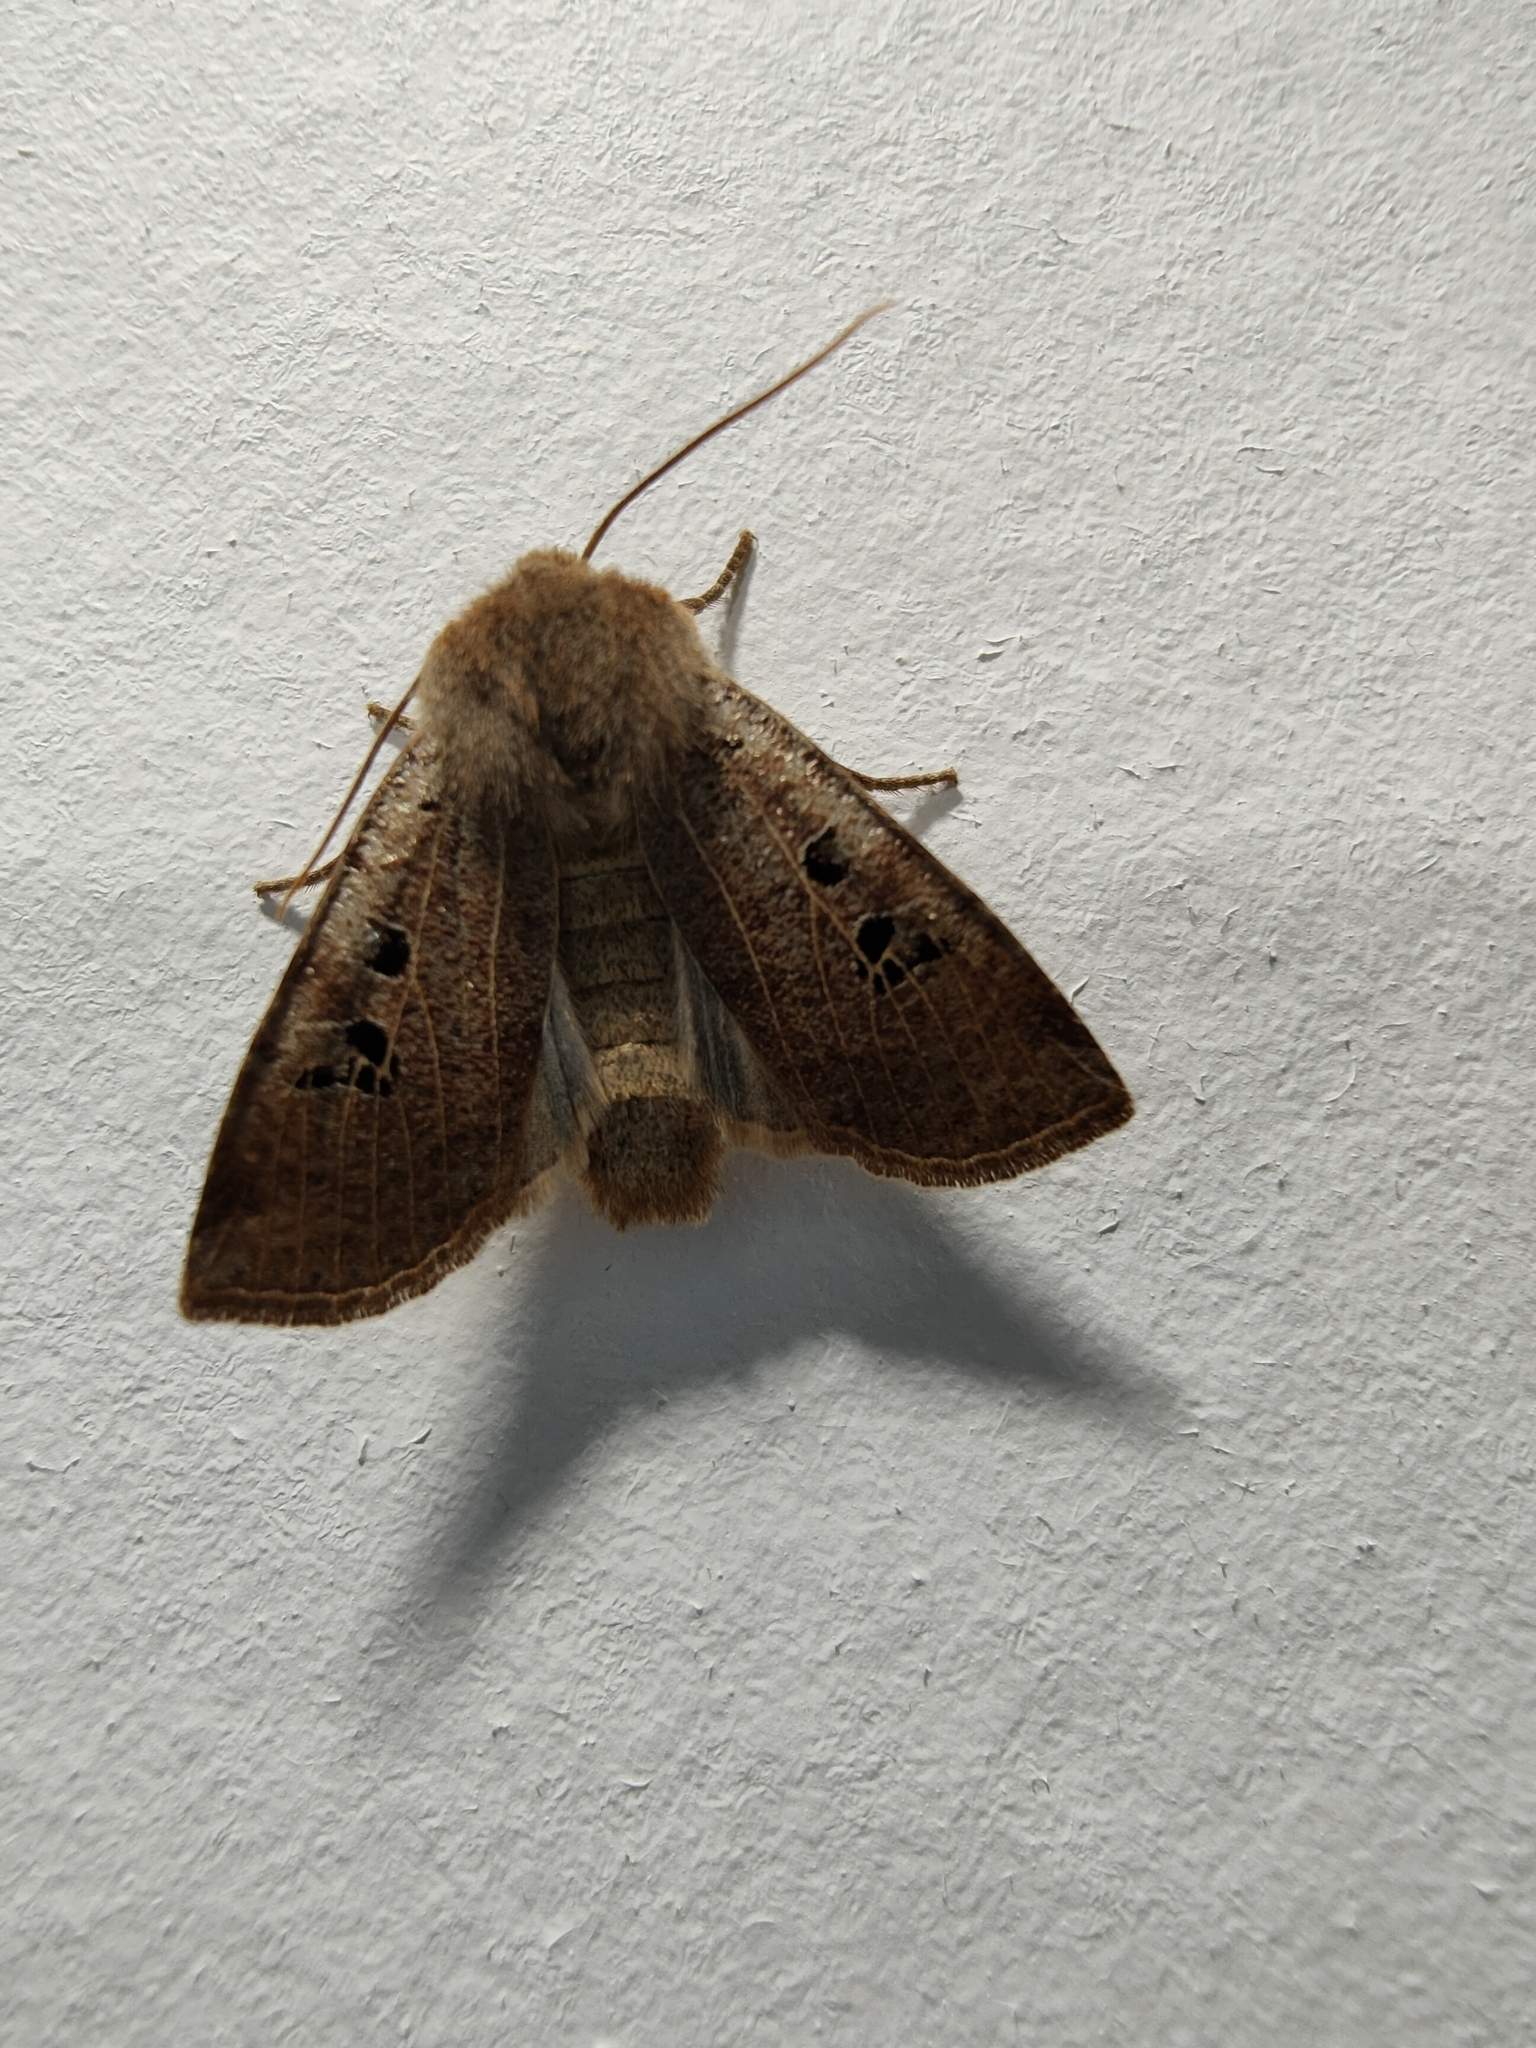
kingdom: Animalia
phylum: Arthropoda
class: Insecta
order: Lepidoptera
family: Noctuidae
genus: Conistra
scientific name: Conistra rubiginosa
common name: Black-spotted chestnut
